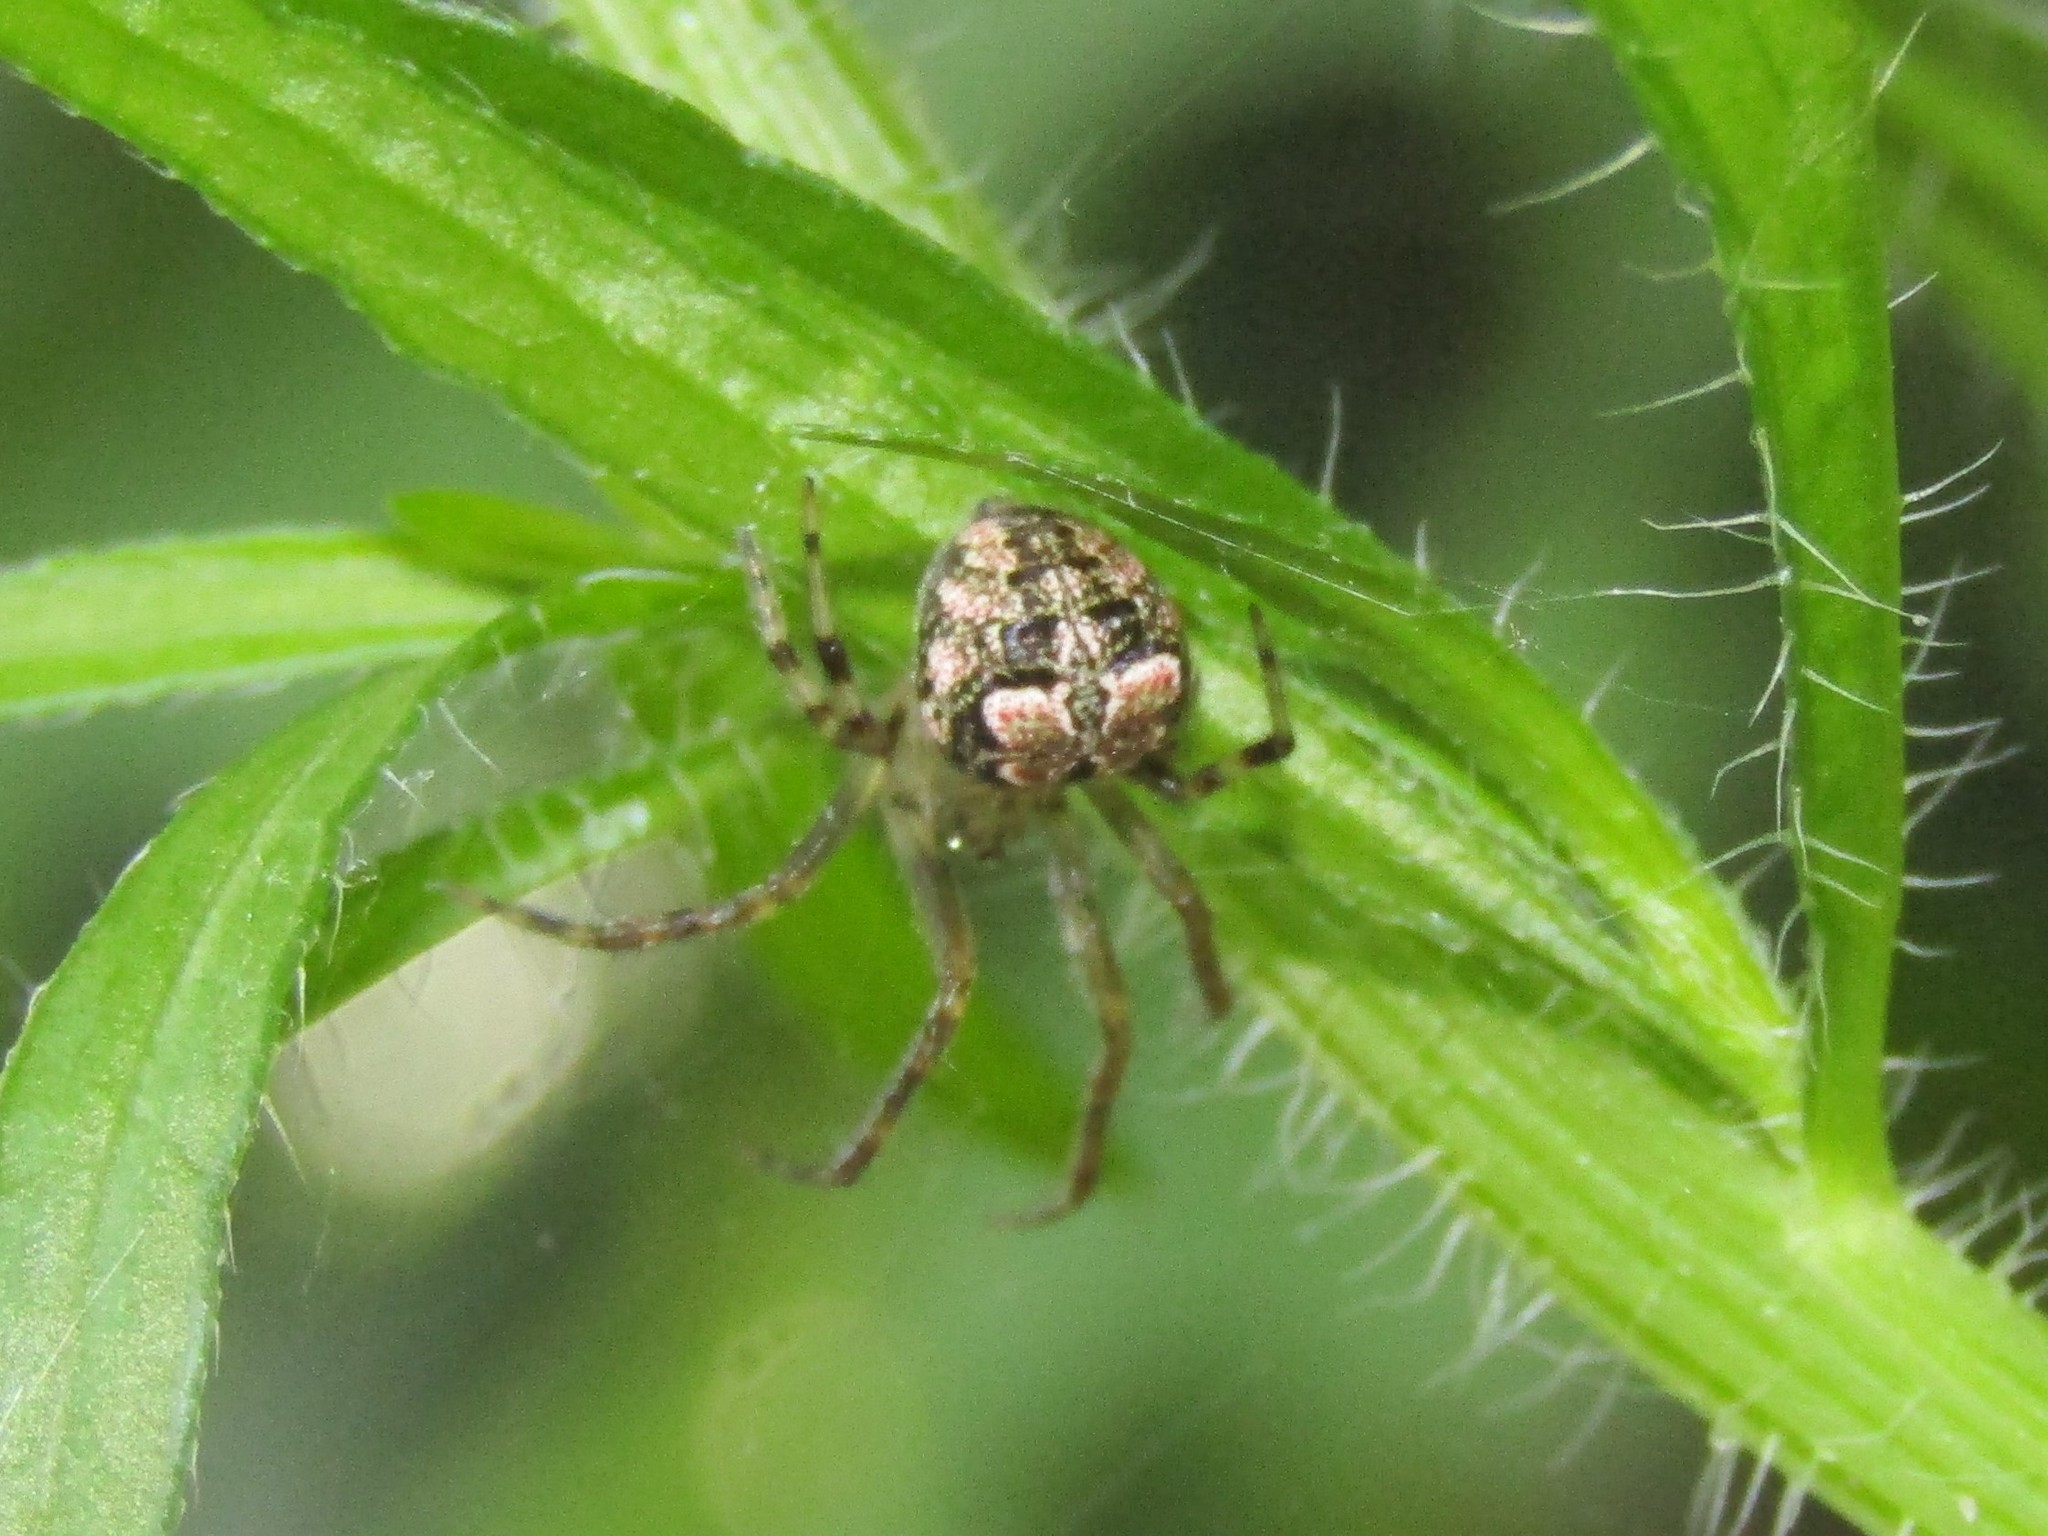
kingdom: Animalia
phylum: Arthropoda
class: Arachnida
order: Araneae
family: Araneidae
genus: Araneus
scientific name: Araneus pegnia
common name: Orb weavers
